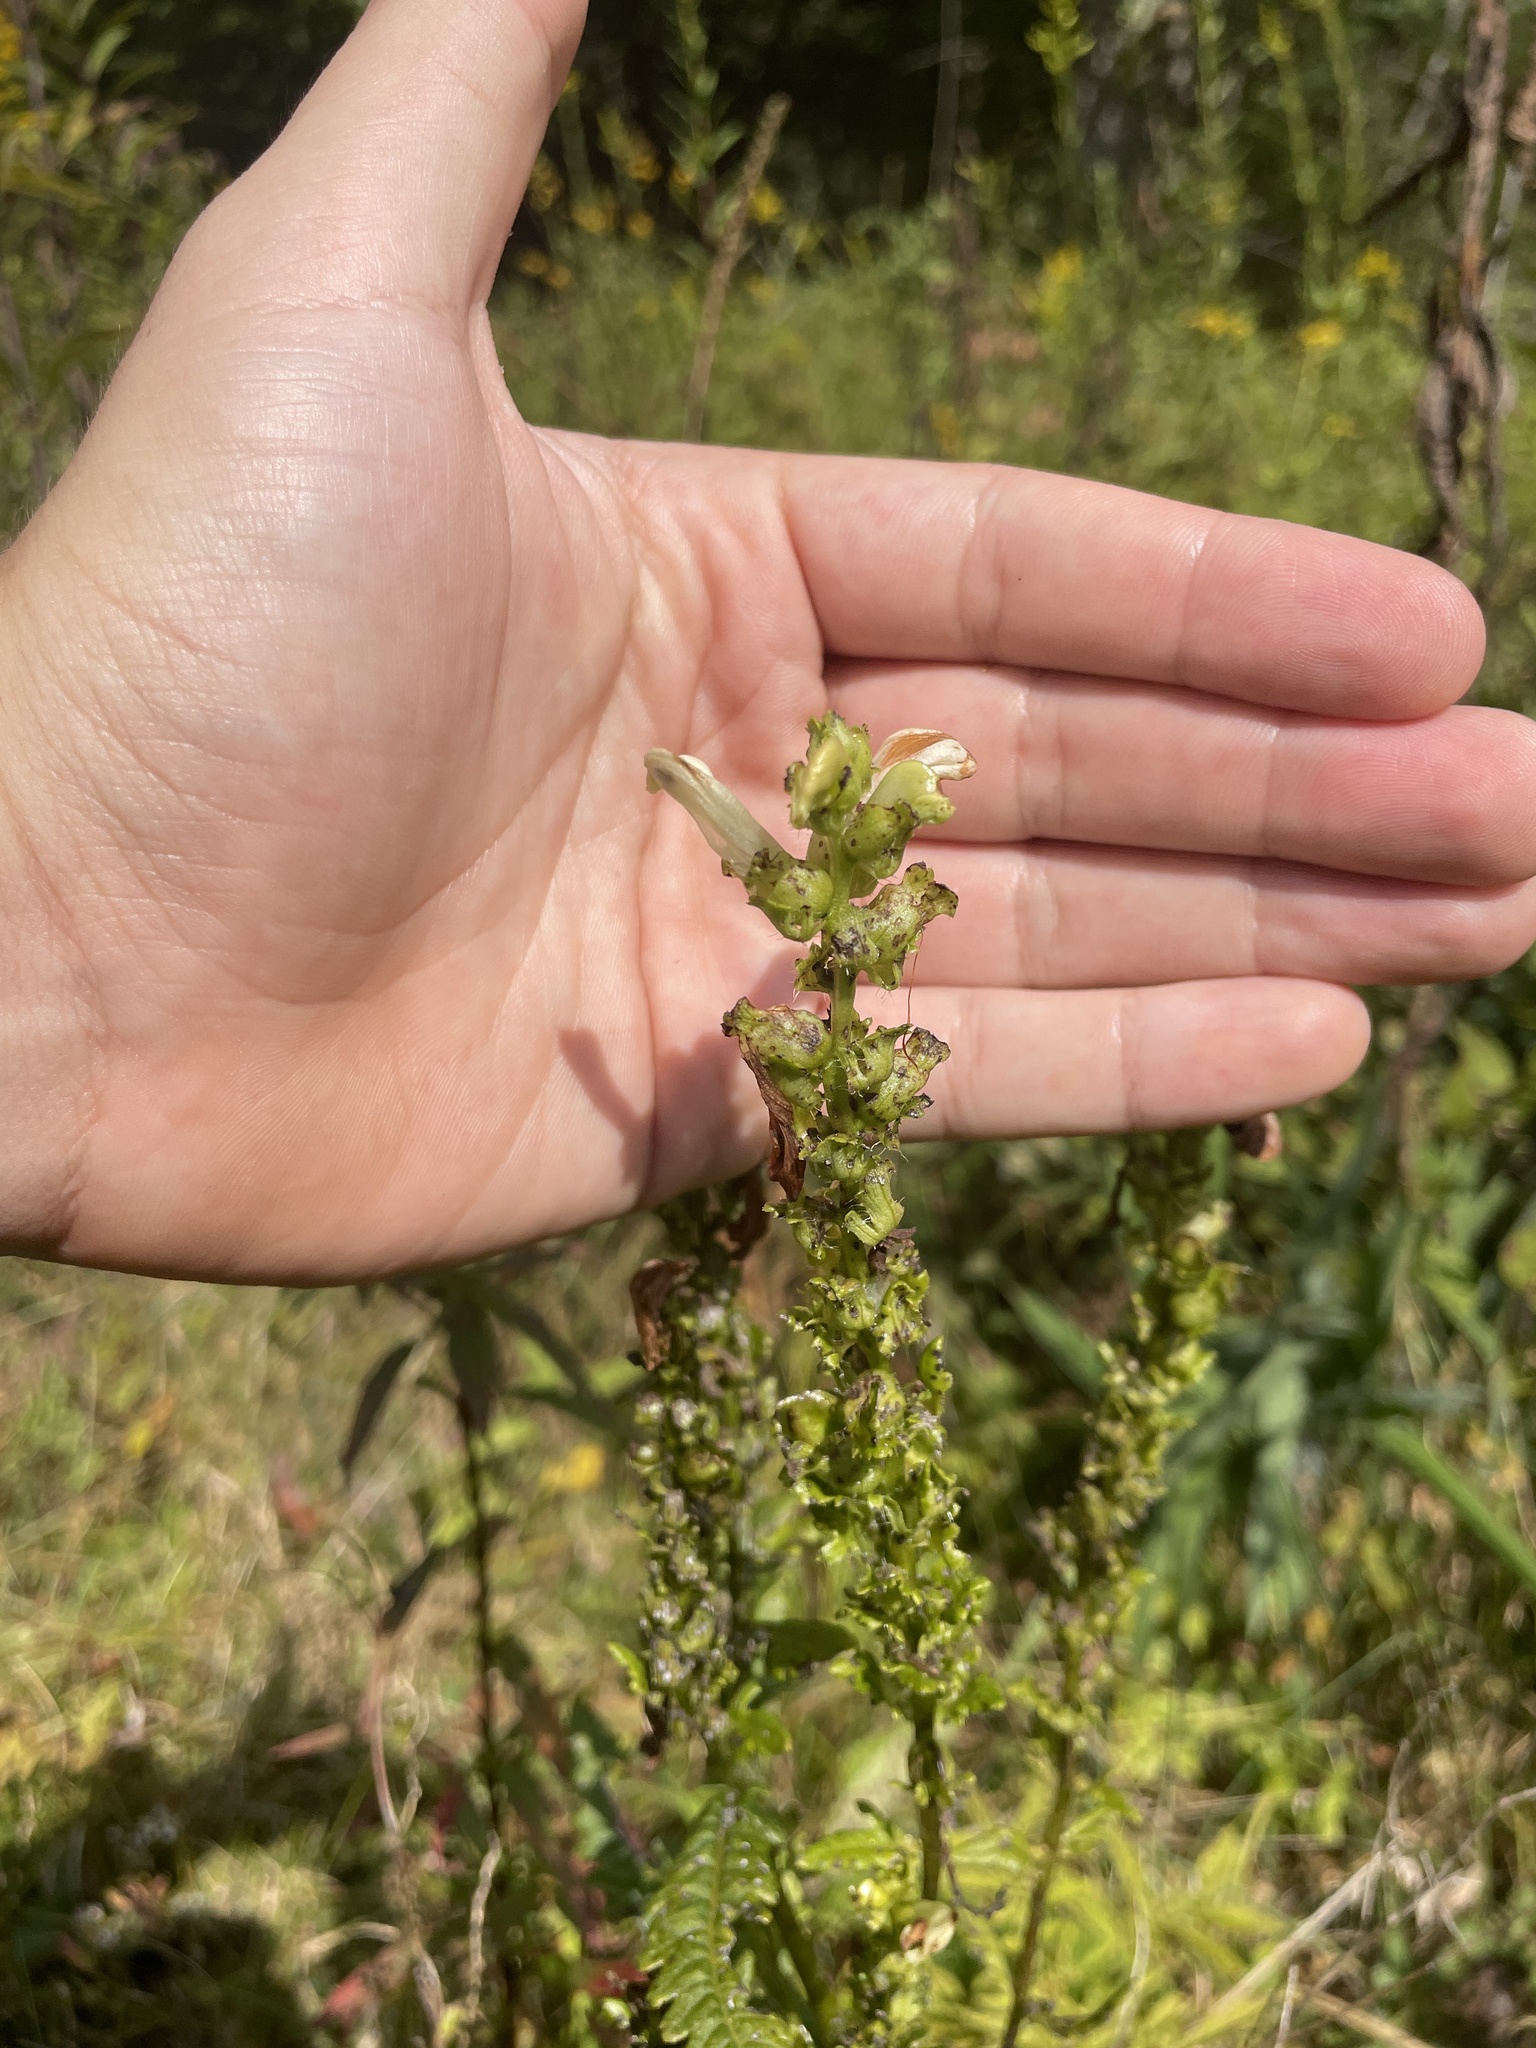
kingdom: Plantae
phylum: Tracheophyta
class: Magnoliopsida
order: Lamiales
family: Orobanchaceae
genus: Pedicularis
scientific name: Pedicularis lanceolata
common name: Swamp lousewort
